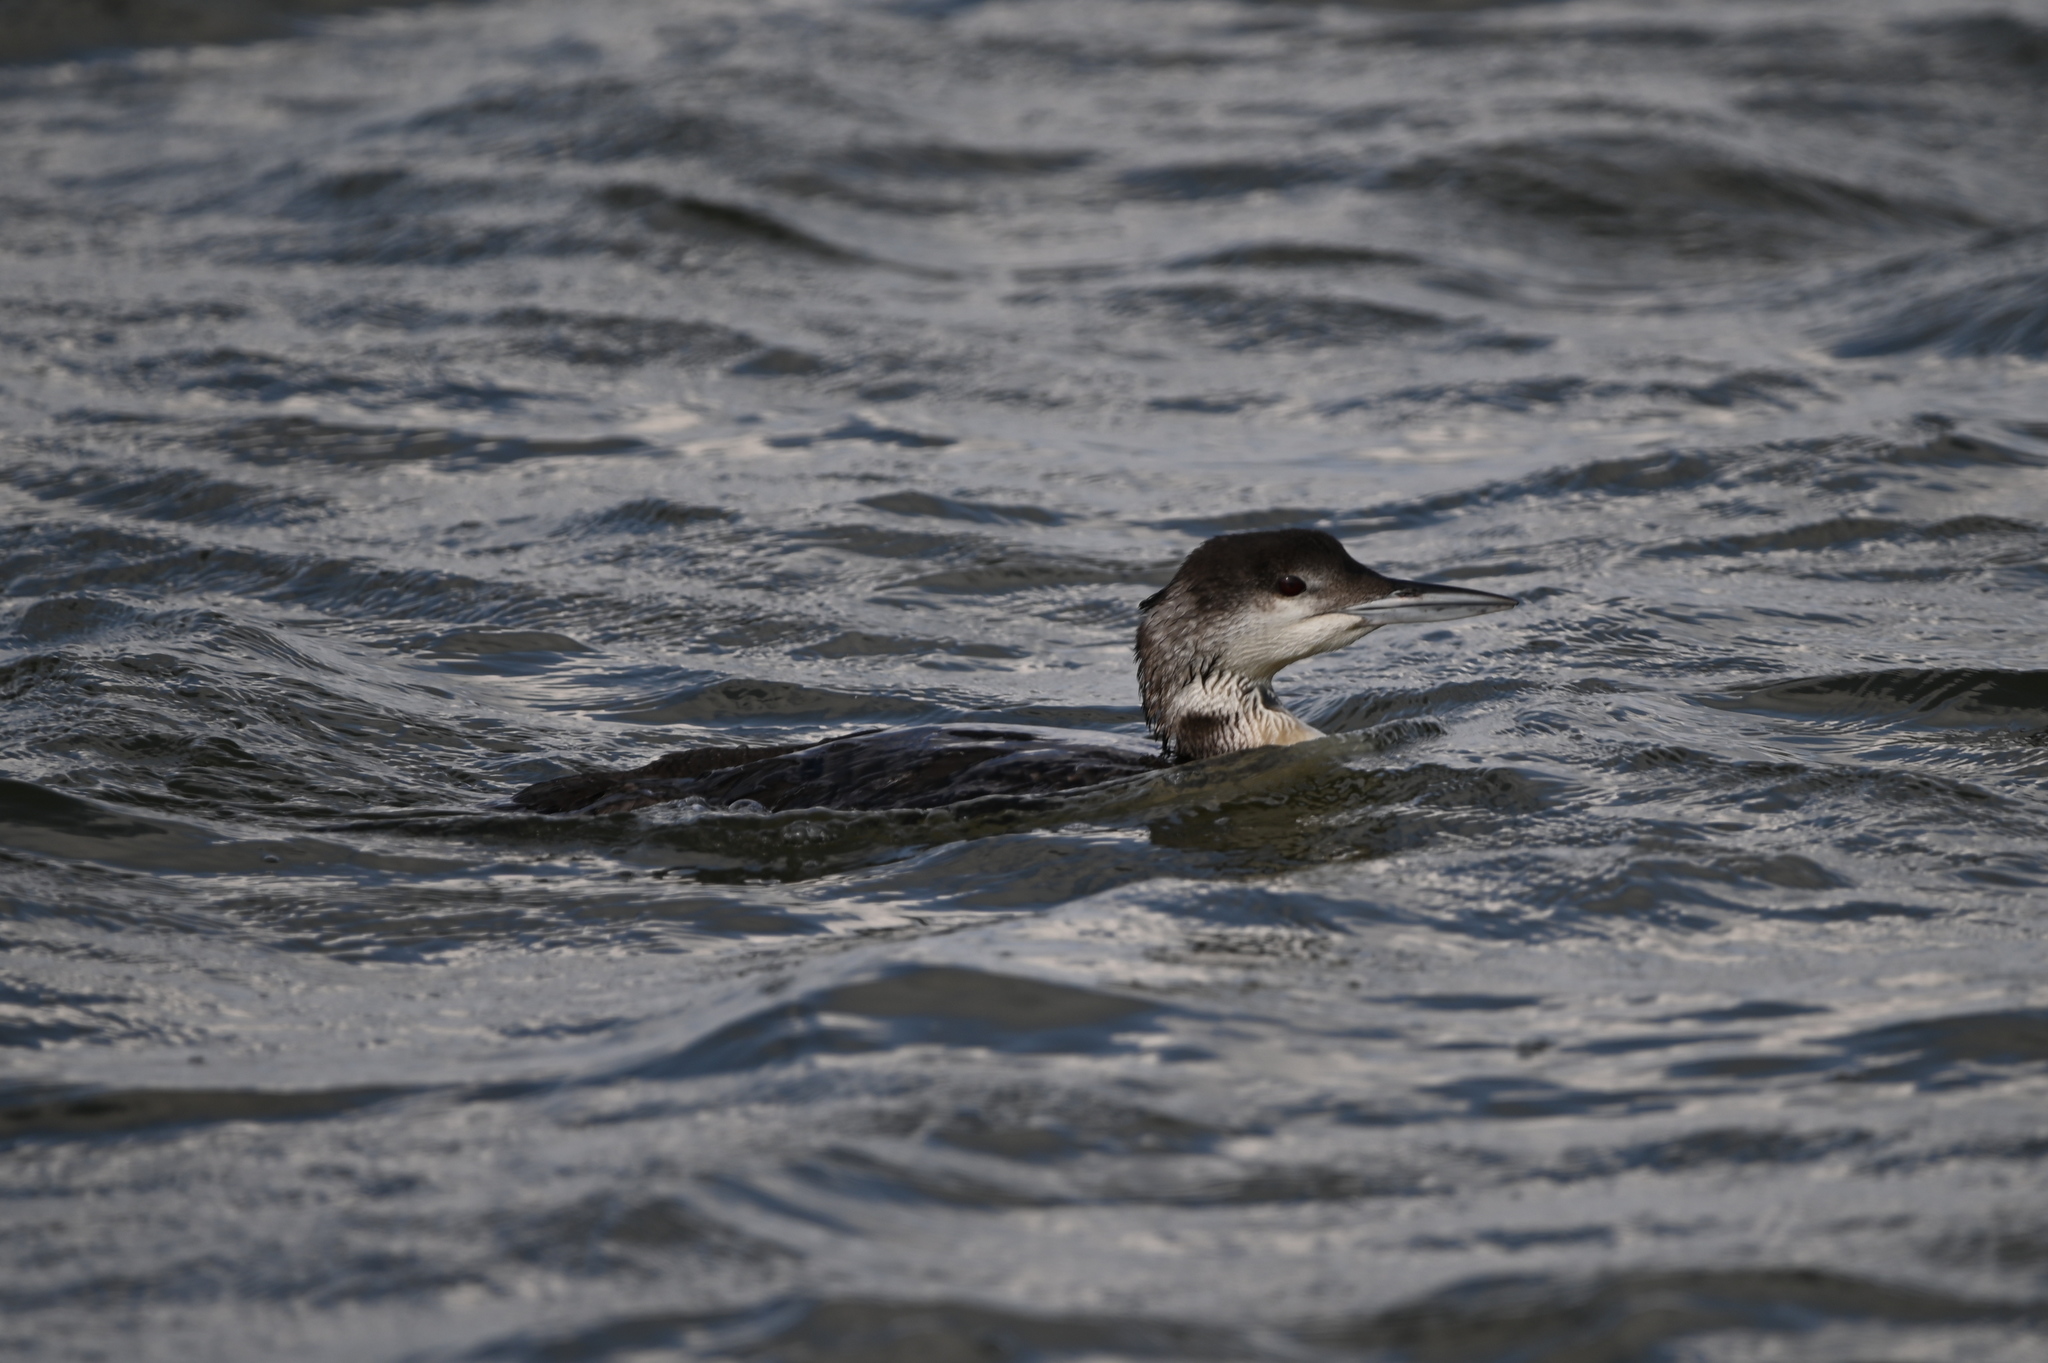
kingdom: Animalia
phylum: Chordata
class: Aves
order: Gaviiformes
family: Gaviidae
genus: Gavia
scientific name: Gavia immer
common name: Common loon
